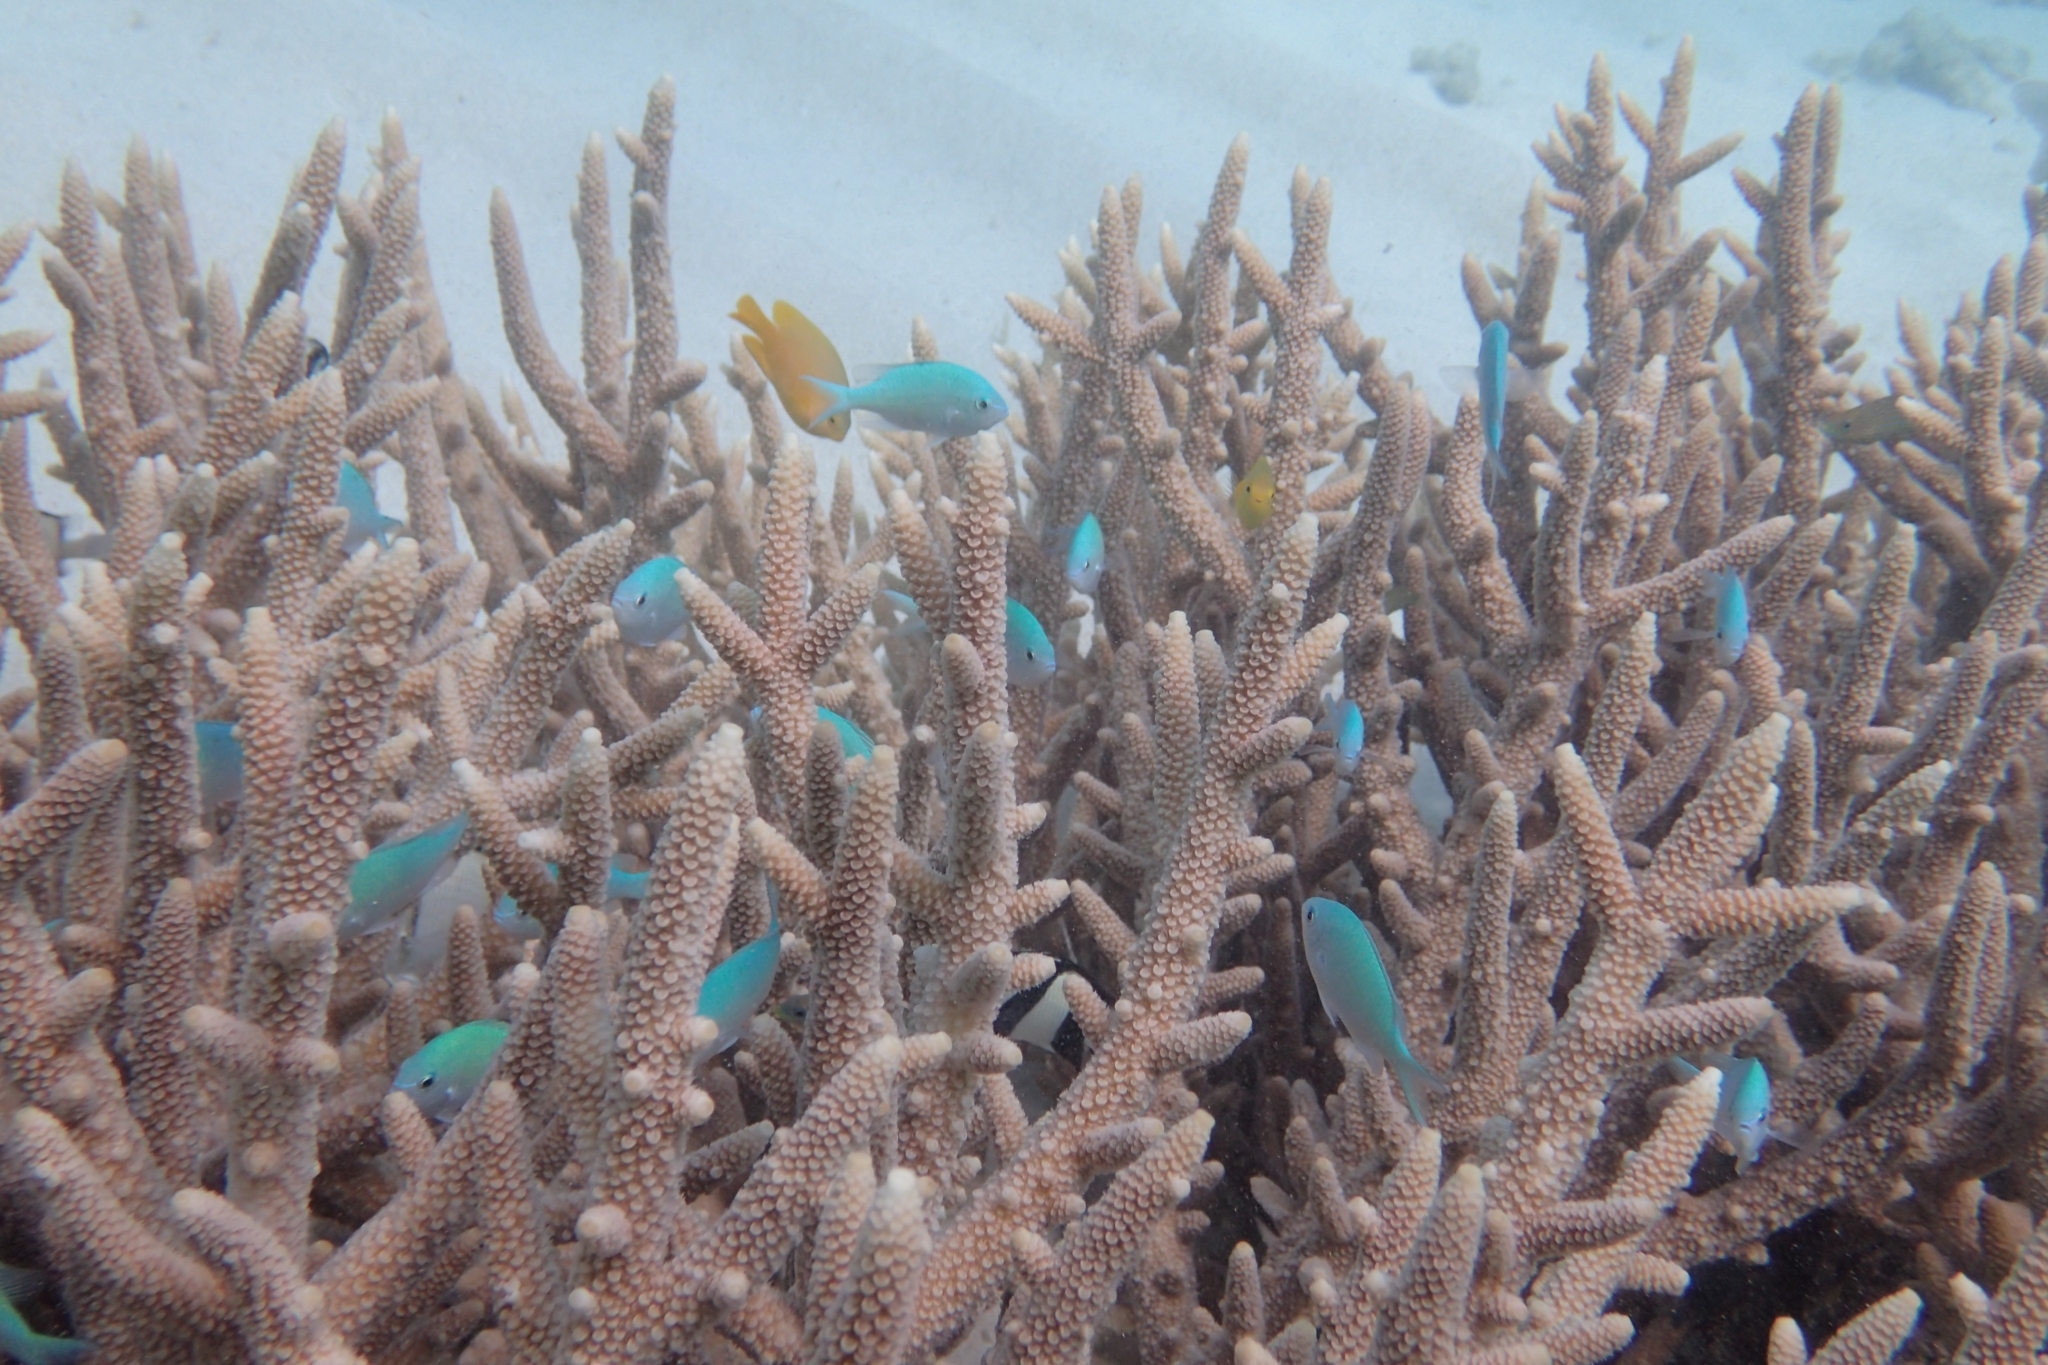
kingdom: Animalia
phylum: Chordata
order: Perciformes
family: Pomacentridae
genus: Chromis
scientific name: Chromis viridis
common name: Blue-green chromis
